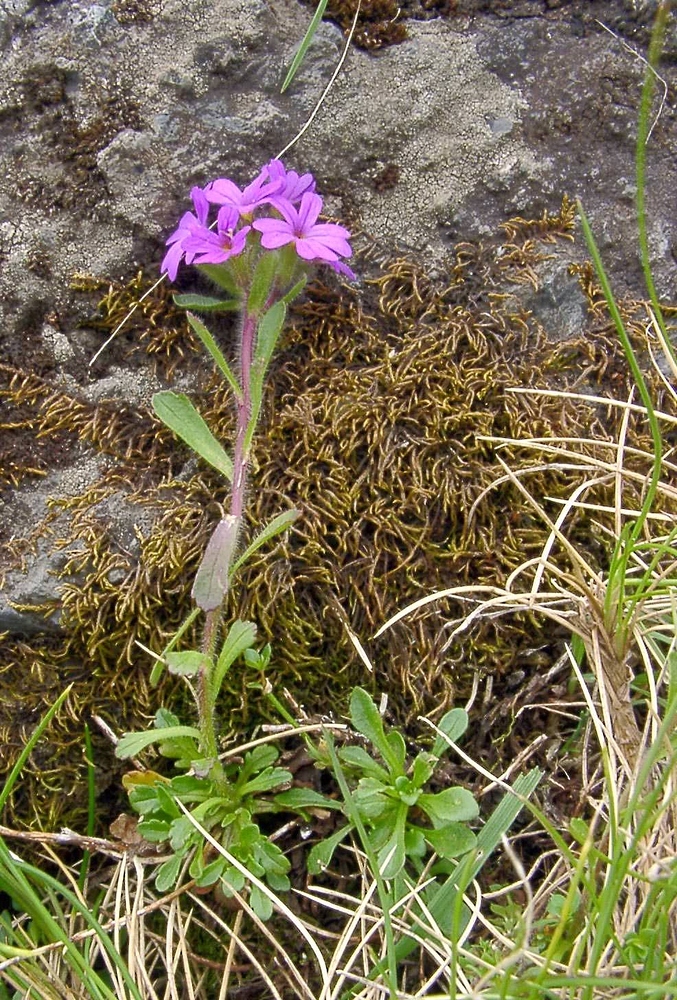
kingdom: Plantae
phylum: Tracheophyta
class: Magnoliopsida
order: Lamiales
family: Plantaginaceae
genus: Erinus
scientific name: Erinus alpinus
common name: Fairy foxglove
